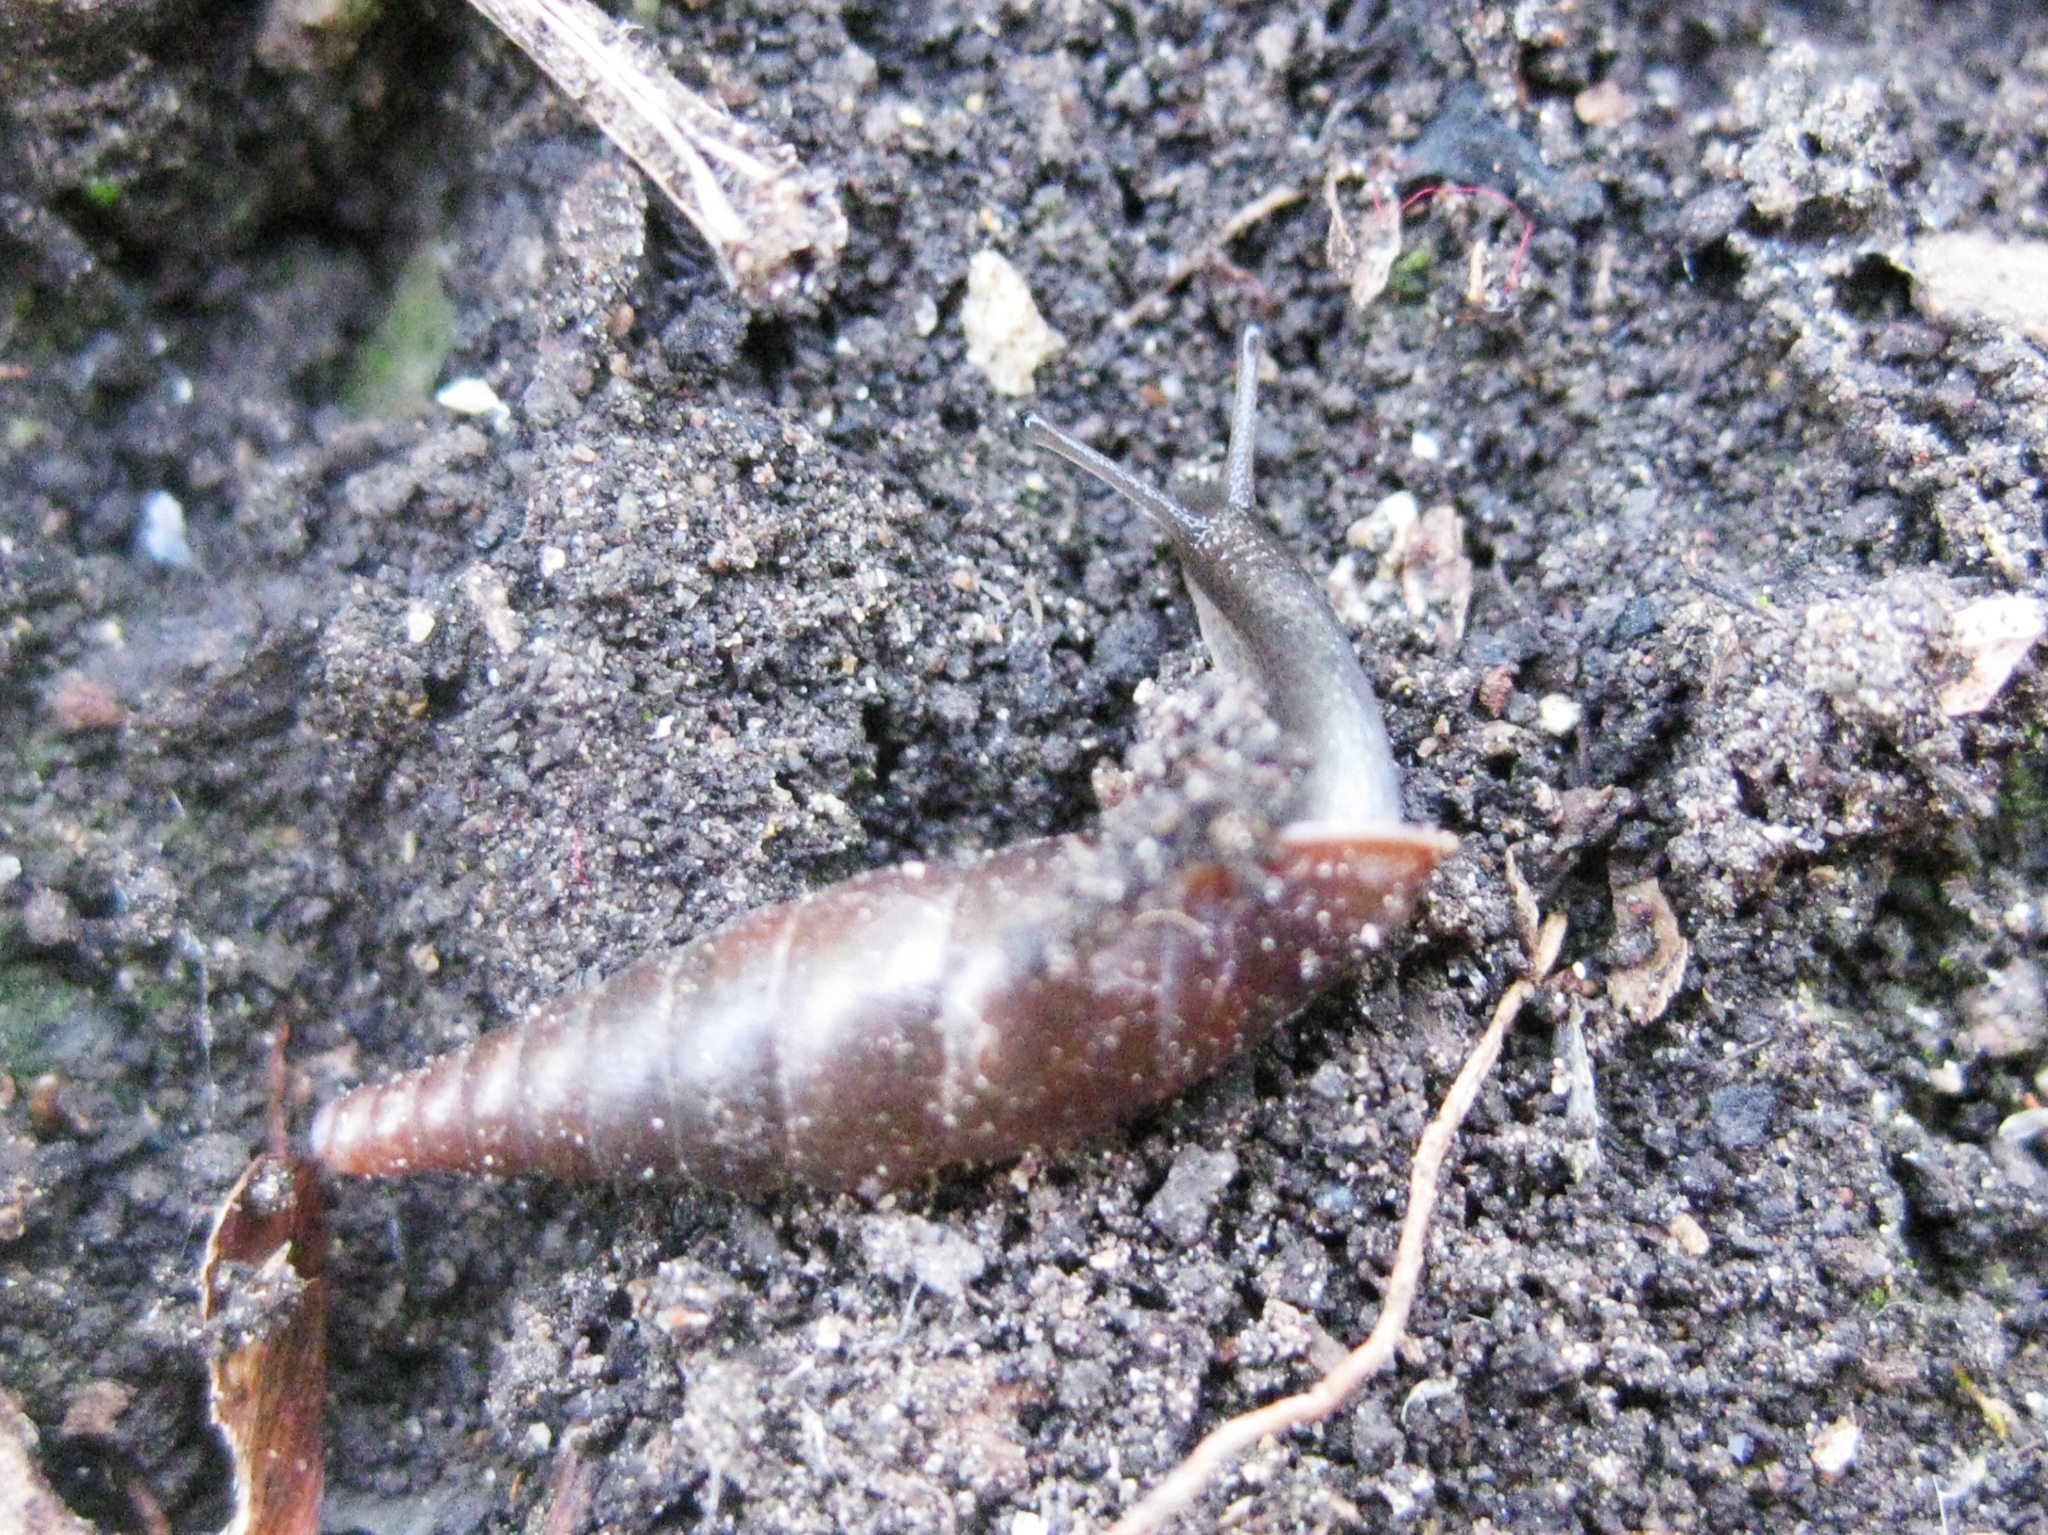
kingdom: Animalia
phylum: Mollusca
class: Gastropoda
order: Stylommatophora
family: Clausiliidae
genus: Cochlodina
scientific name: Cochlodina laminata
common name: Plaited door snail
